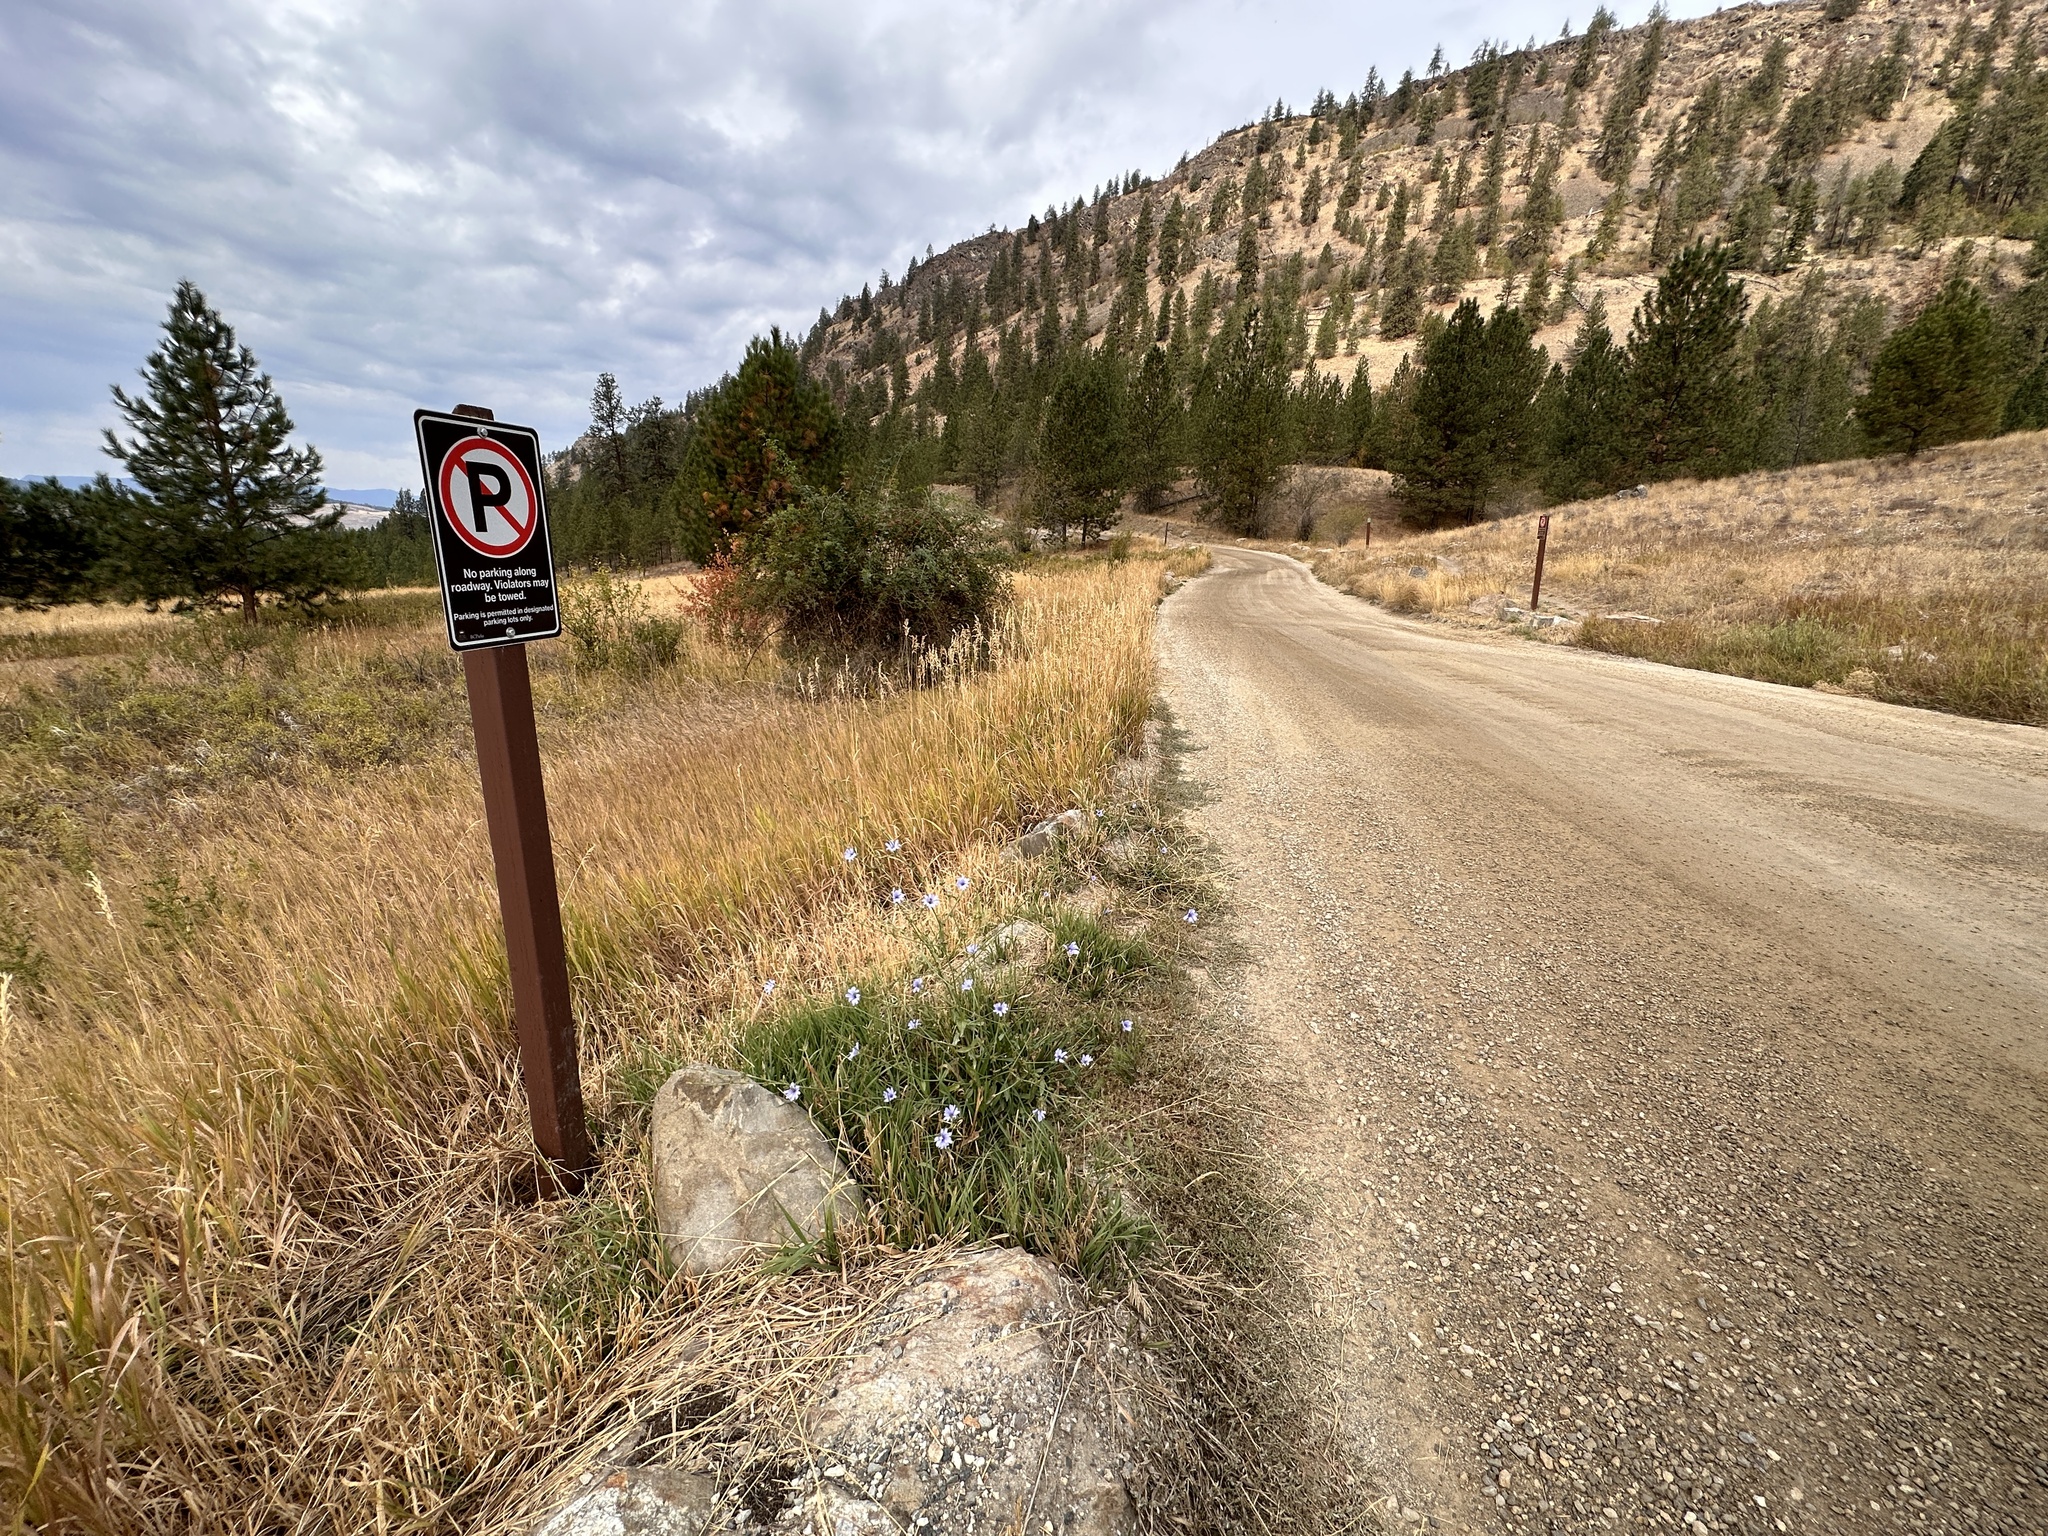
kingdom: Plantae
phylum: Tracheophyta
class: Magnoliopsida
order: Asterales
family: Asteraceae
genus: Cichorium
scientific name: Cichorium intybus
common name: Chicory
